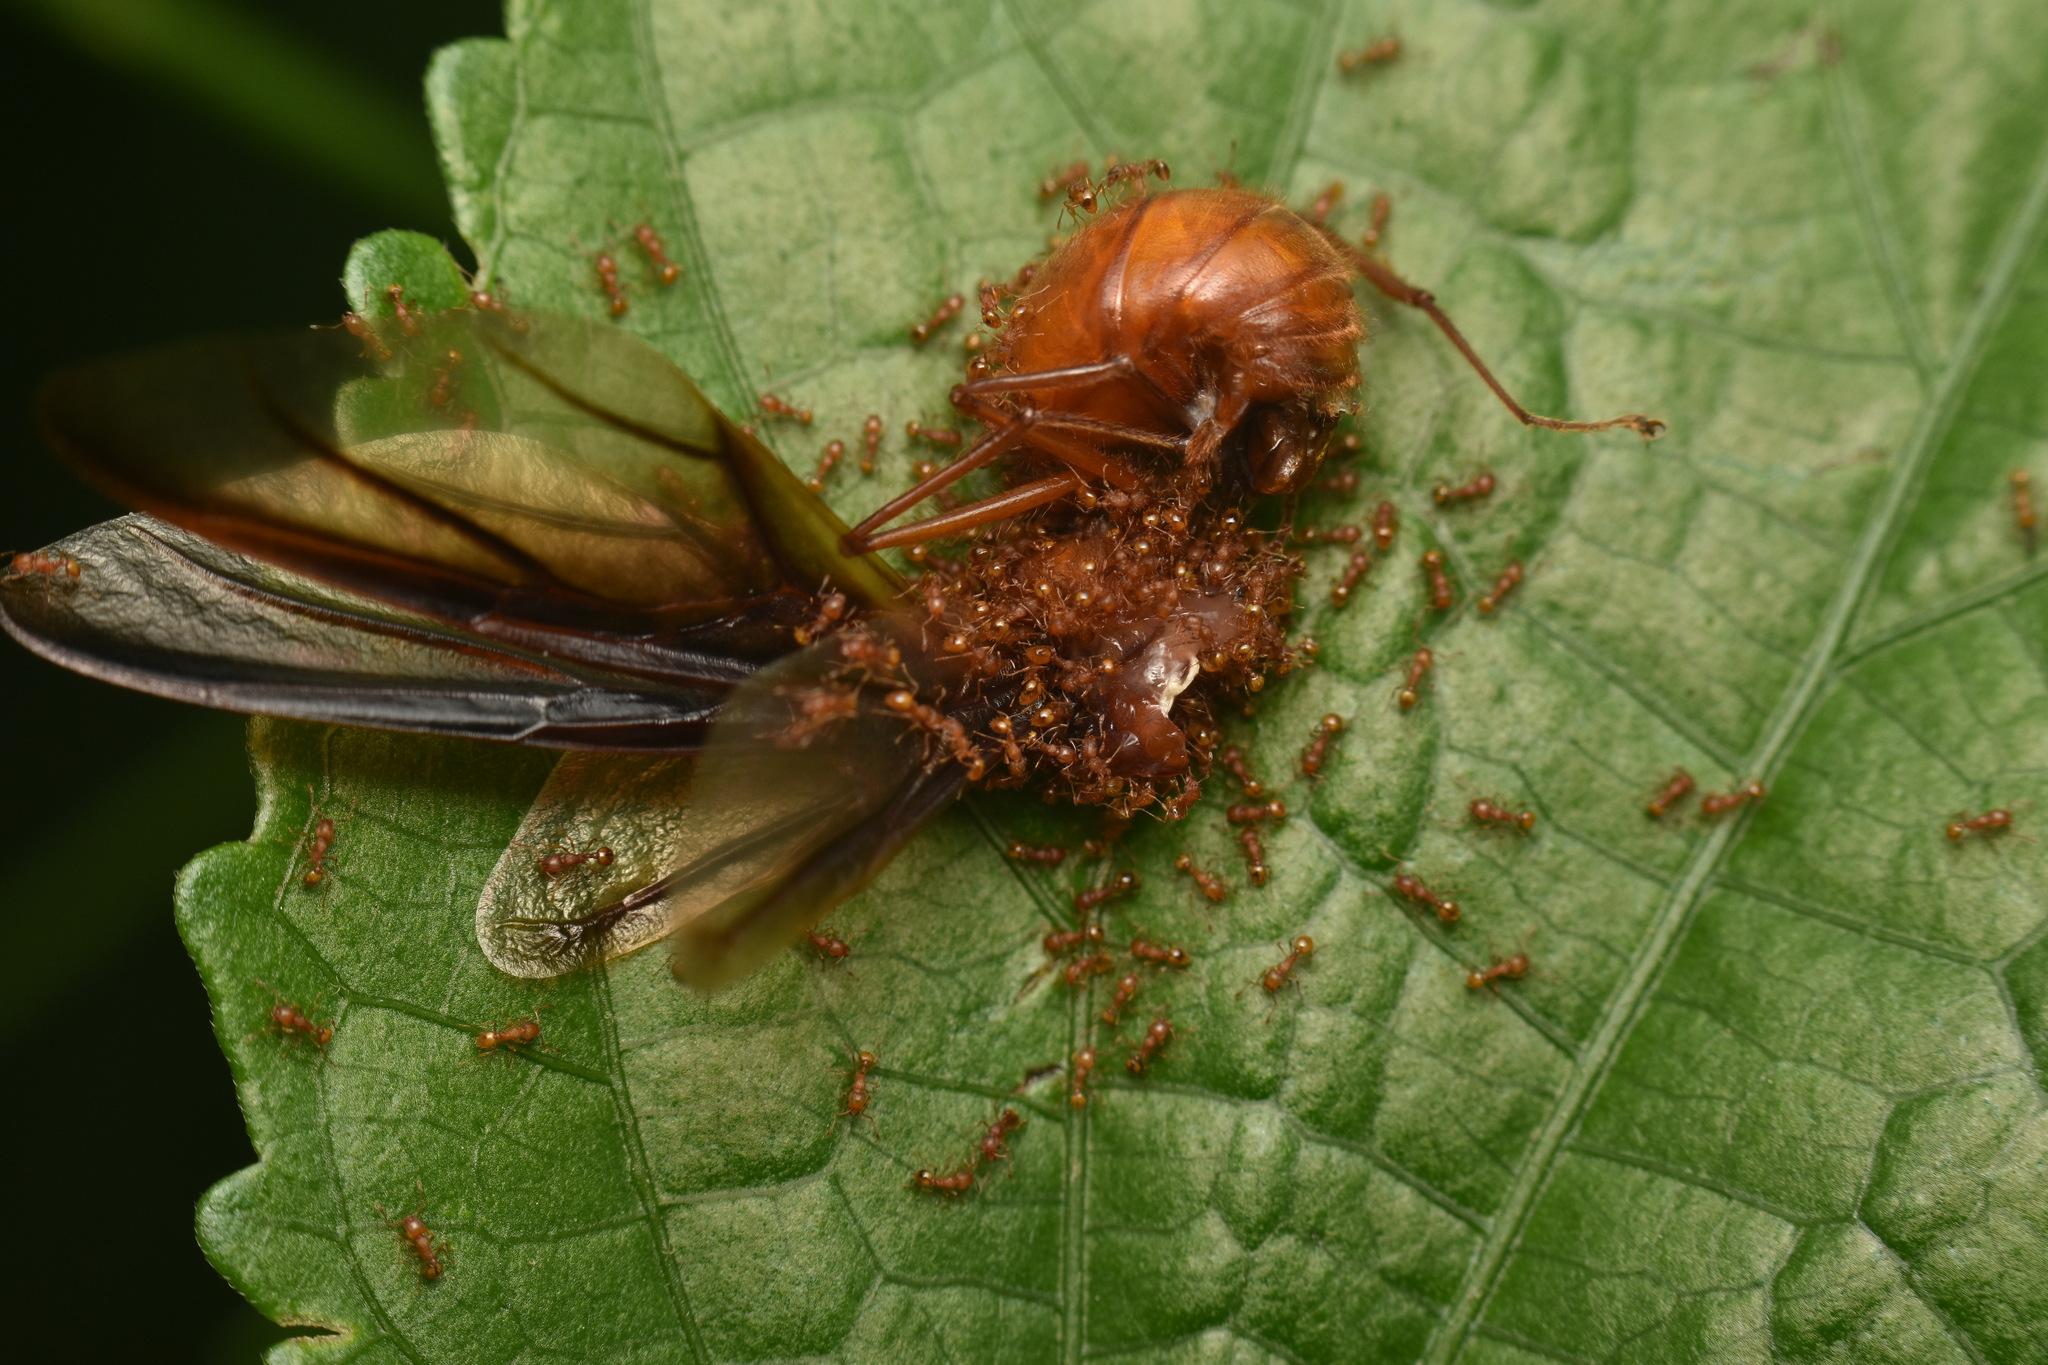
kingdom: Animalia
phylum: Arthropoda
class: Insecta
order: Hymenoptera
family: Formicidae
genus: Wasmannia
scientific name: Wasmannia auropunctata
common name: Little fire ant
